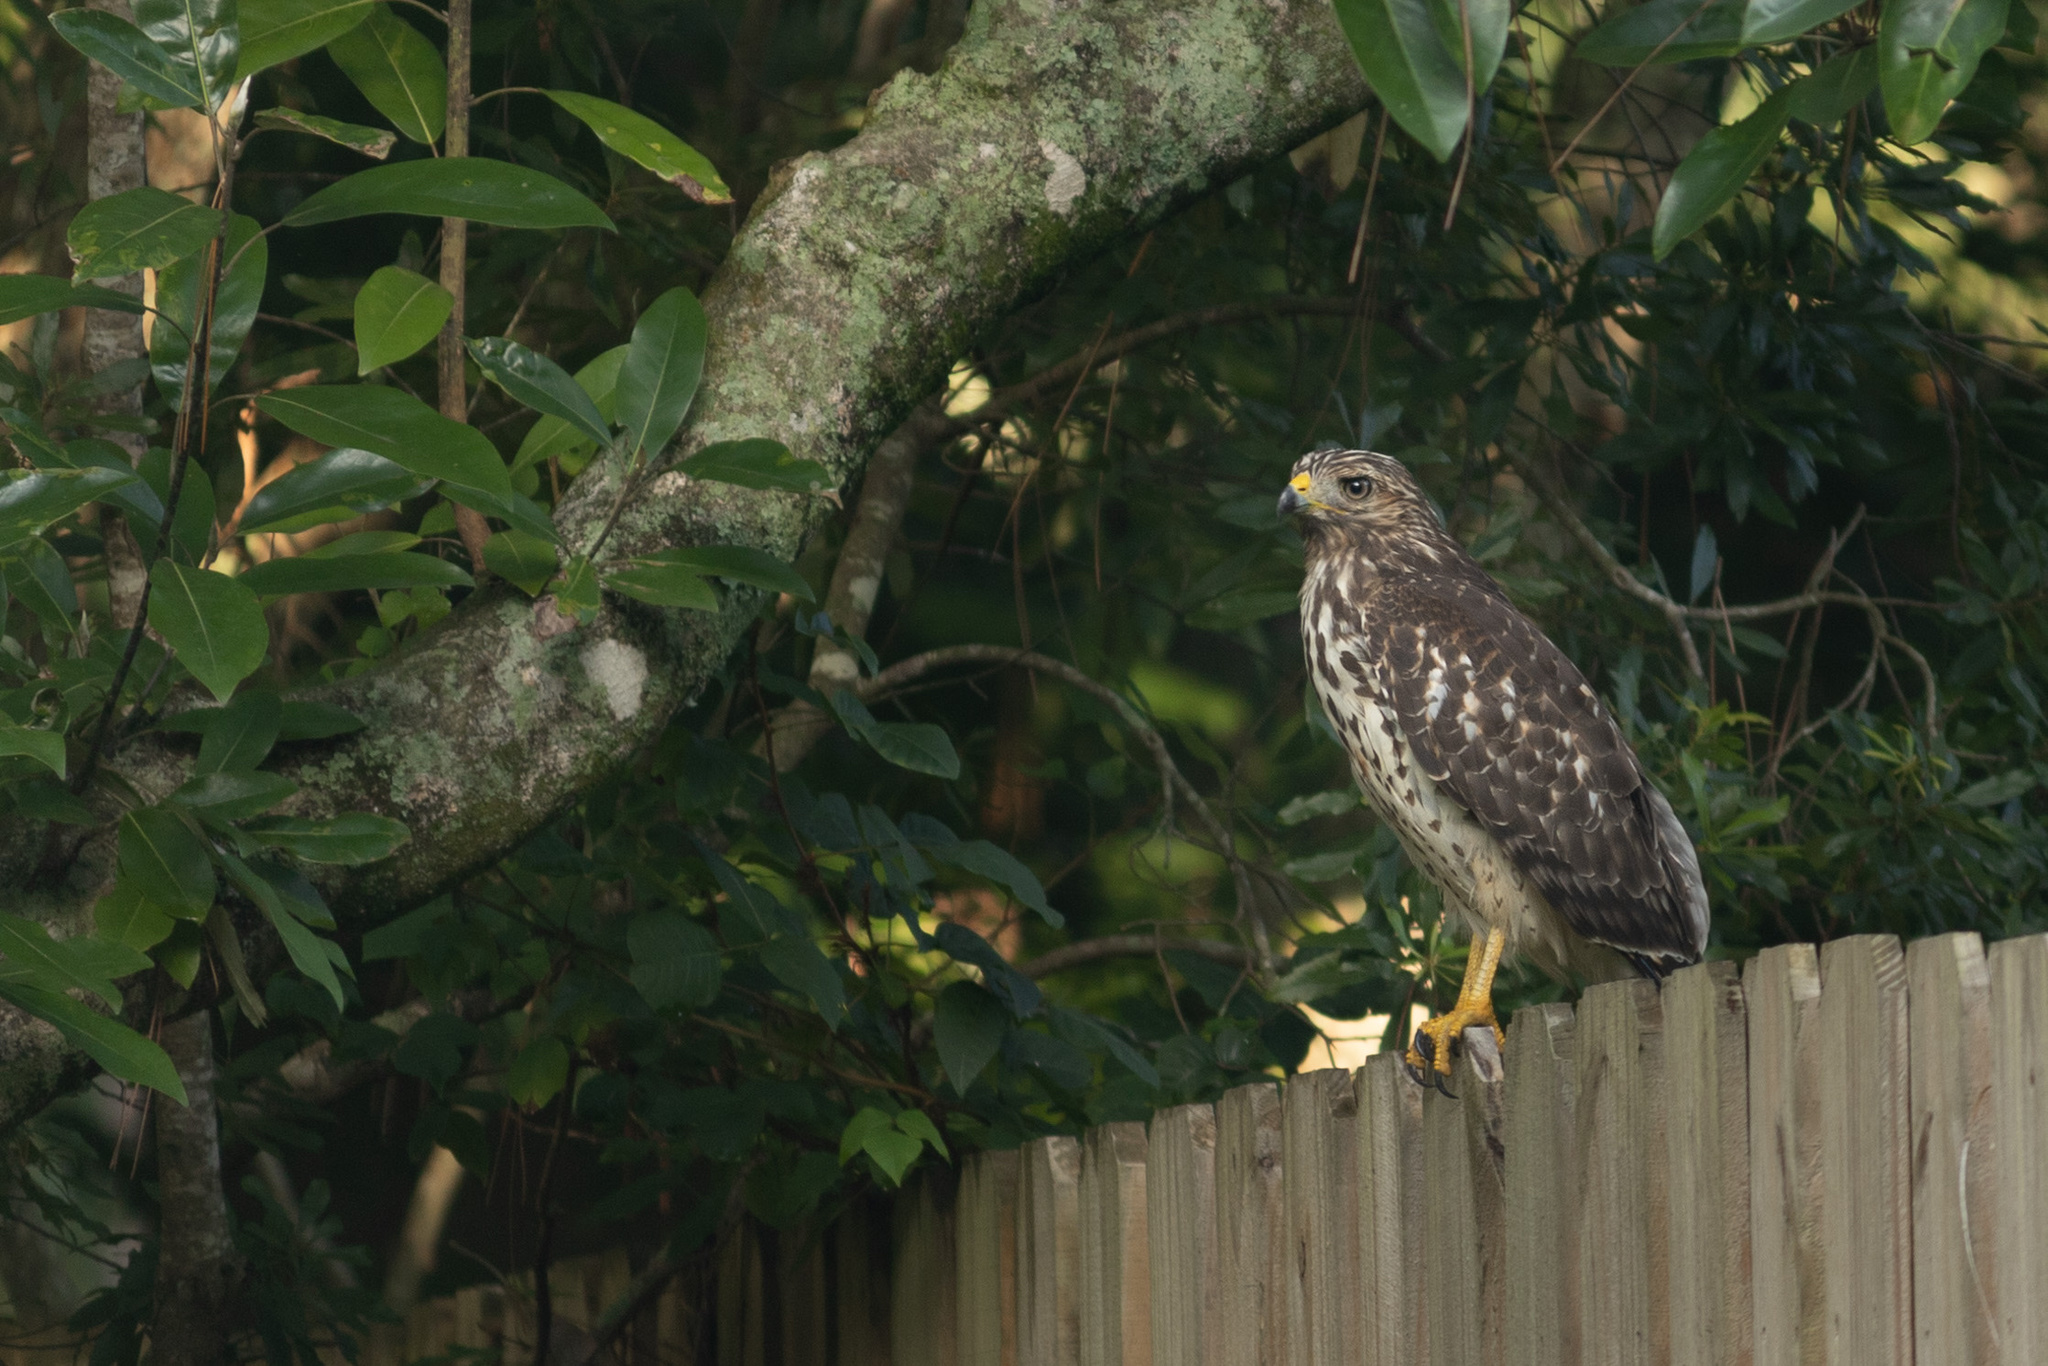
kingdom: Animalia
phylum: Chordata
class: Aves
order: Accipitriformes
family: Accipitridae
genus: Buteo
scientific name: Buteo lineatus
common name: Red-shouldered hawk
